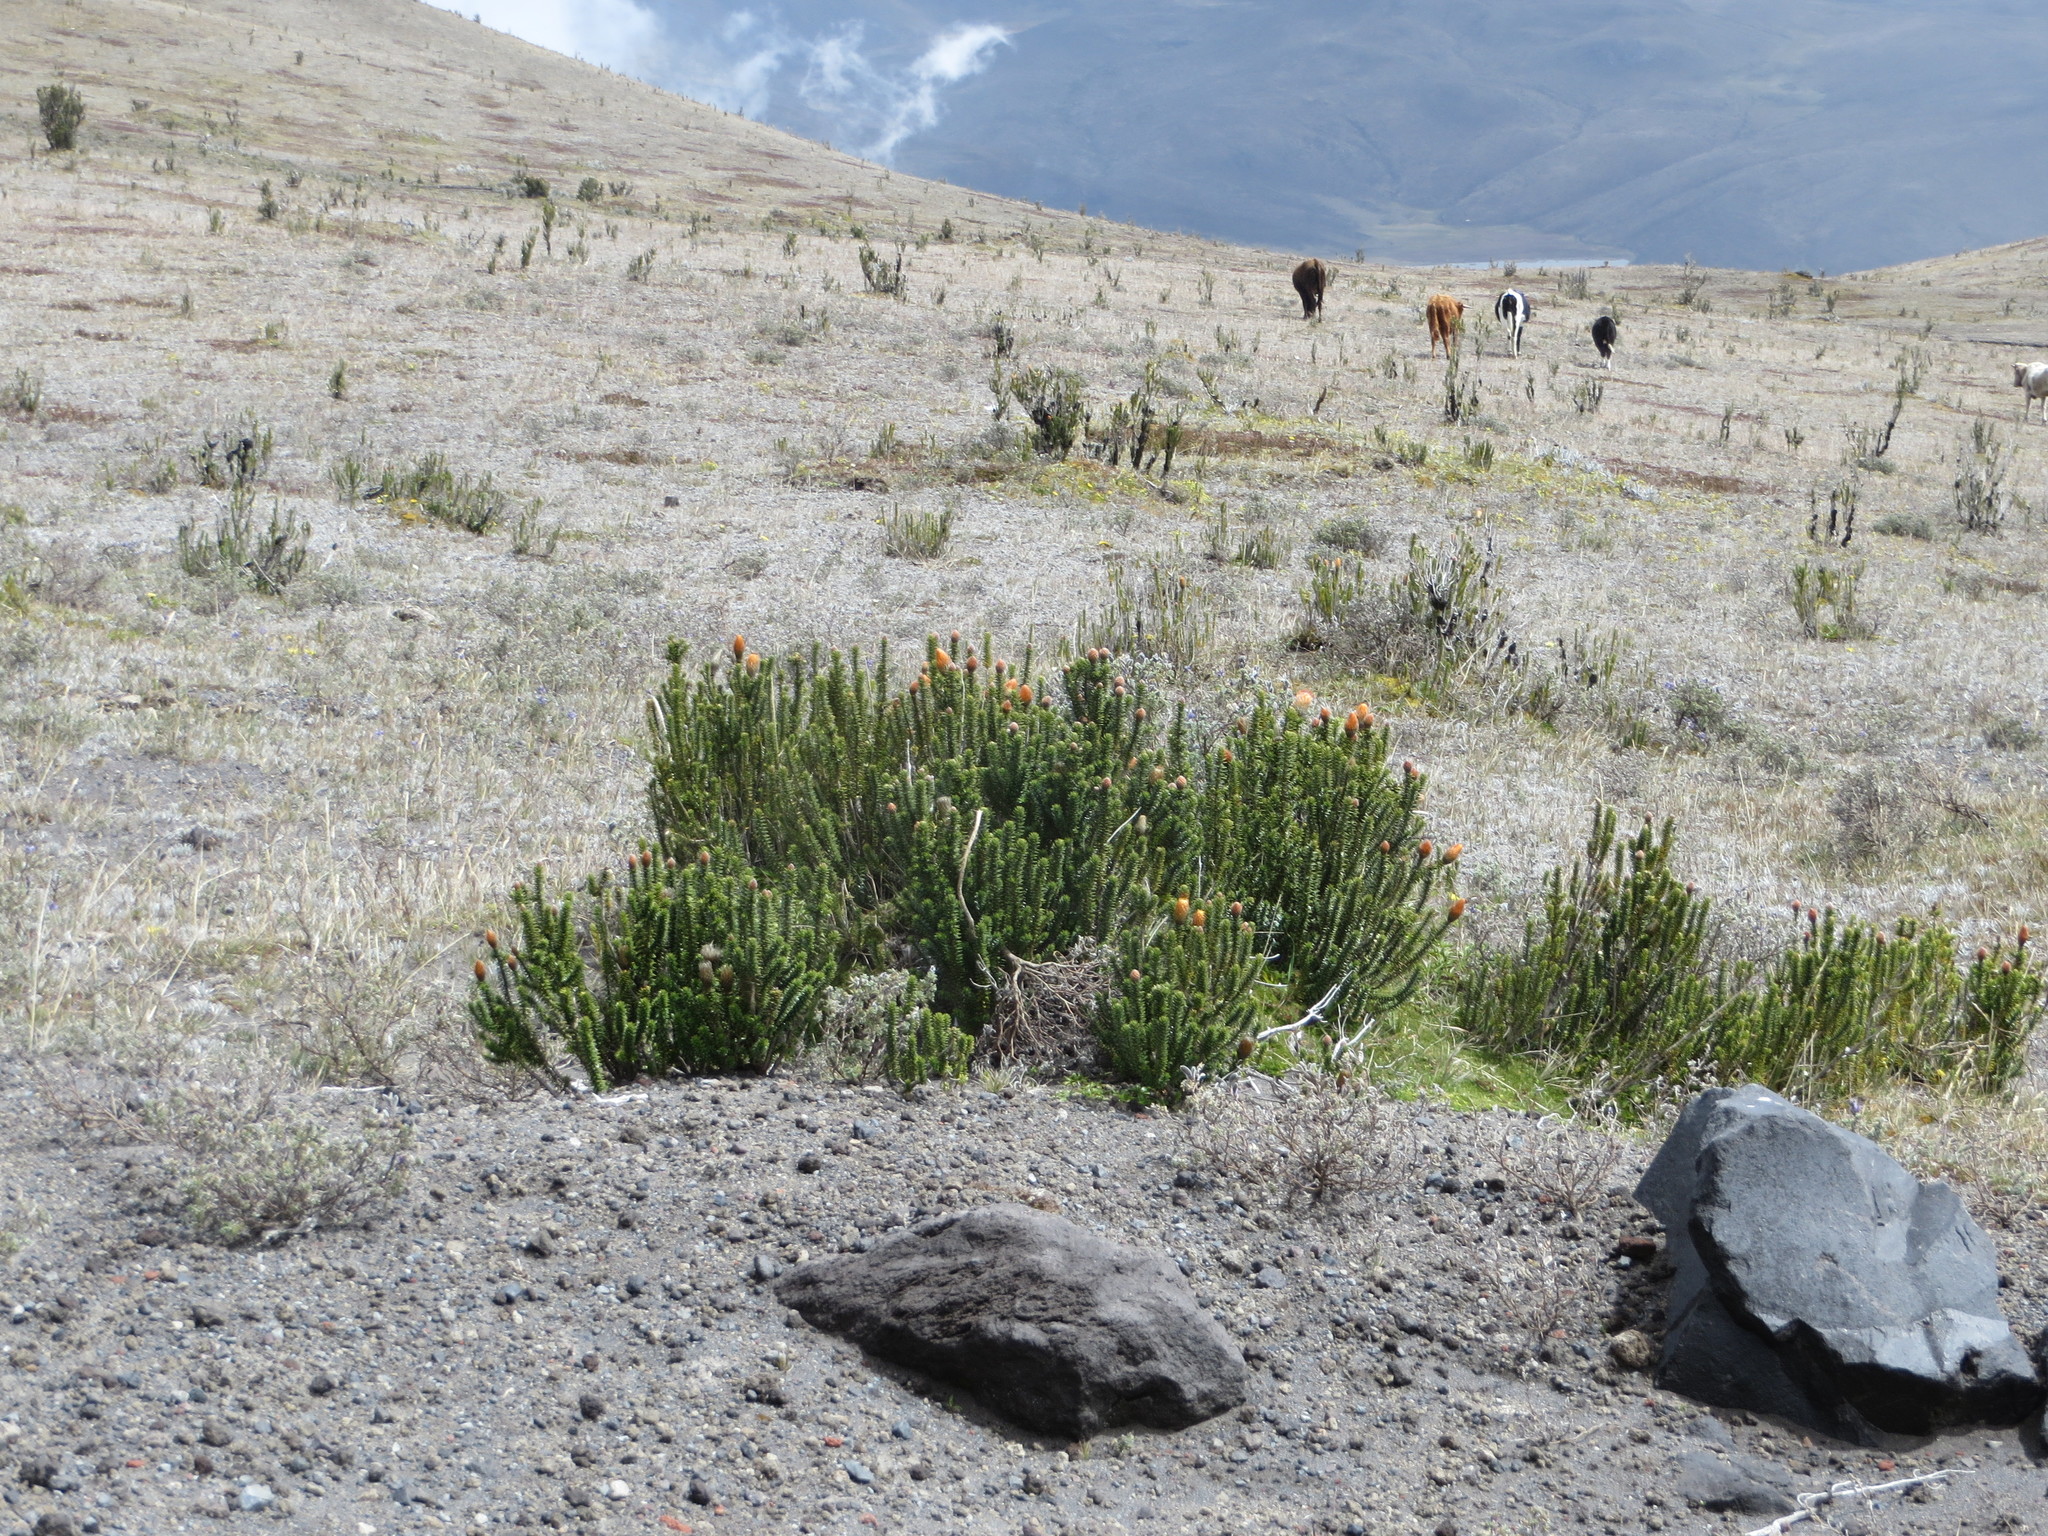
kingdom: Plantae
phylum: Tracheophyta
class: Magnoliopsida
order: Asterales
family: Asteraceae
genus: Chuquiraga
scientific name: Chuquiraga jussieui
